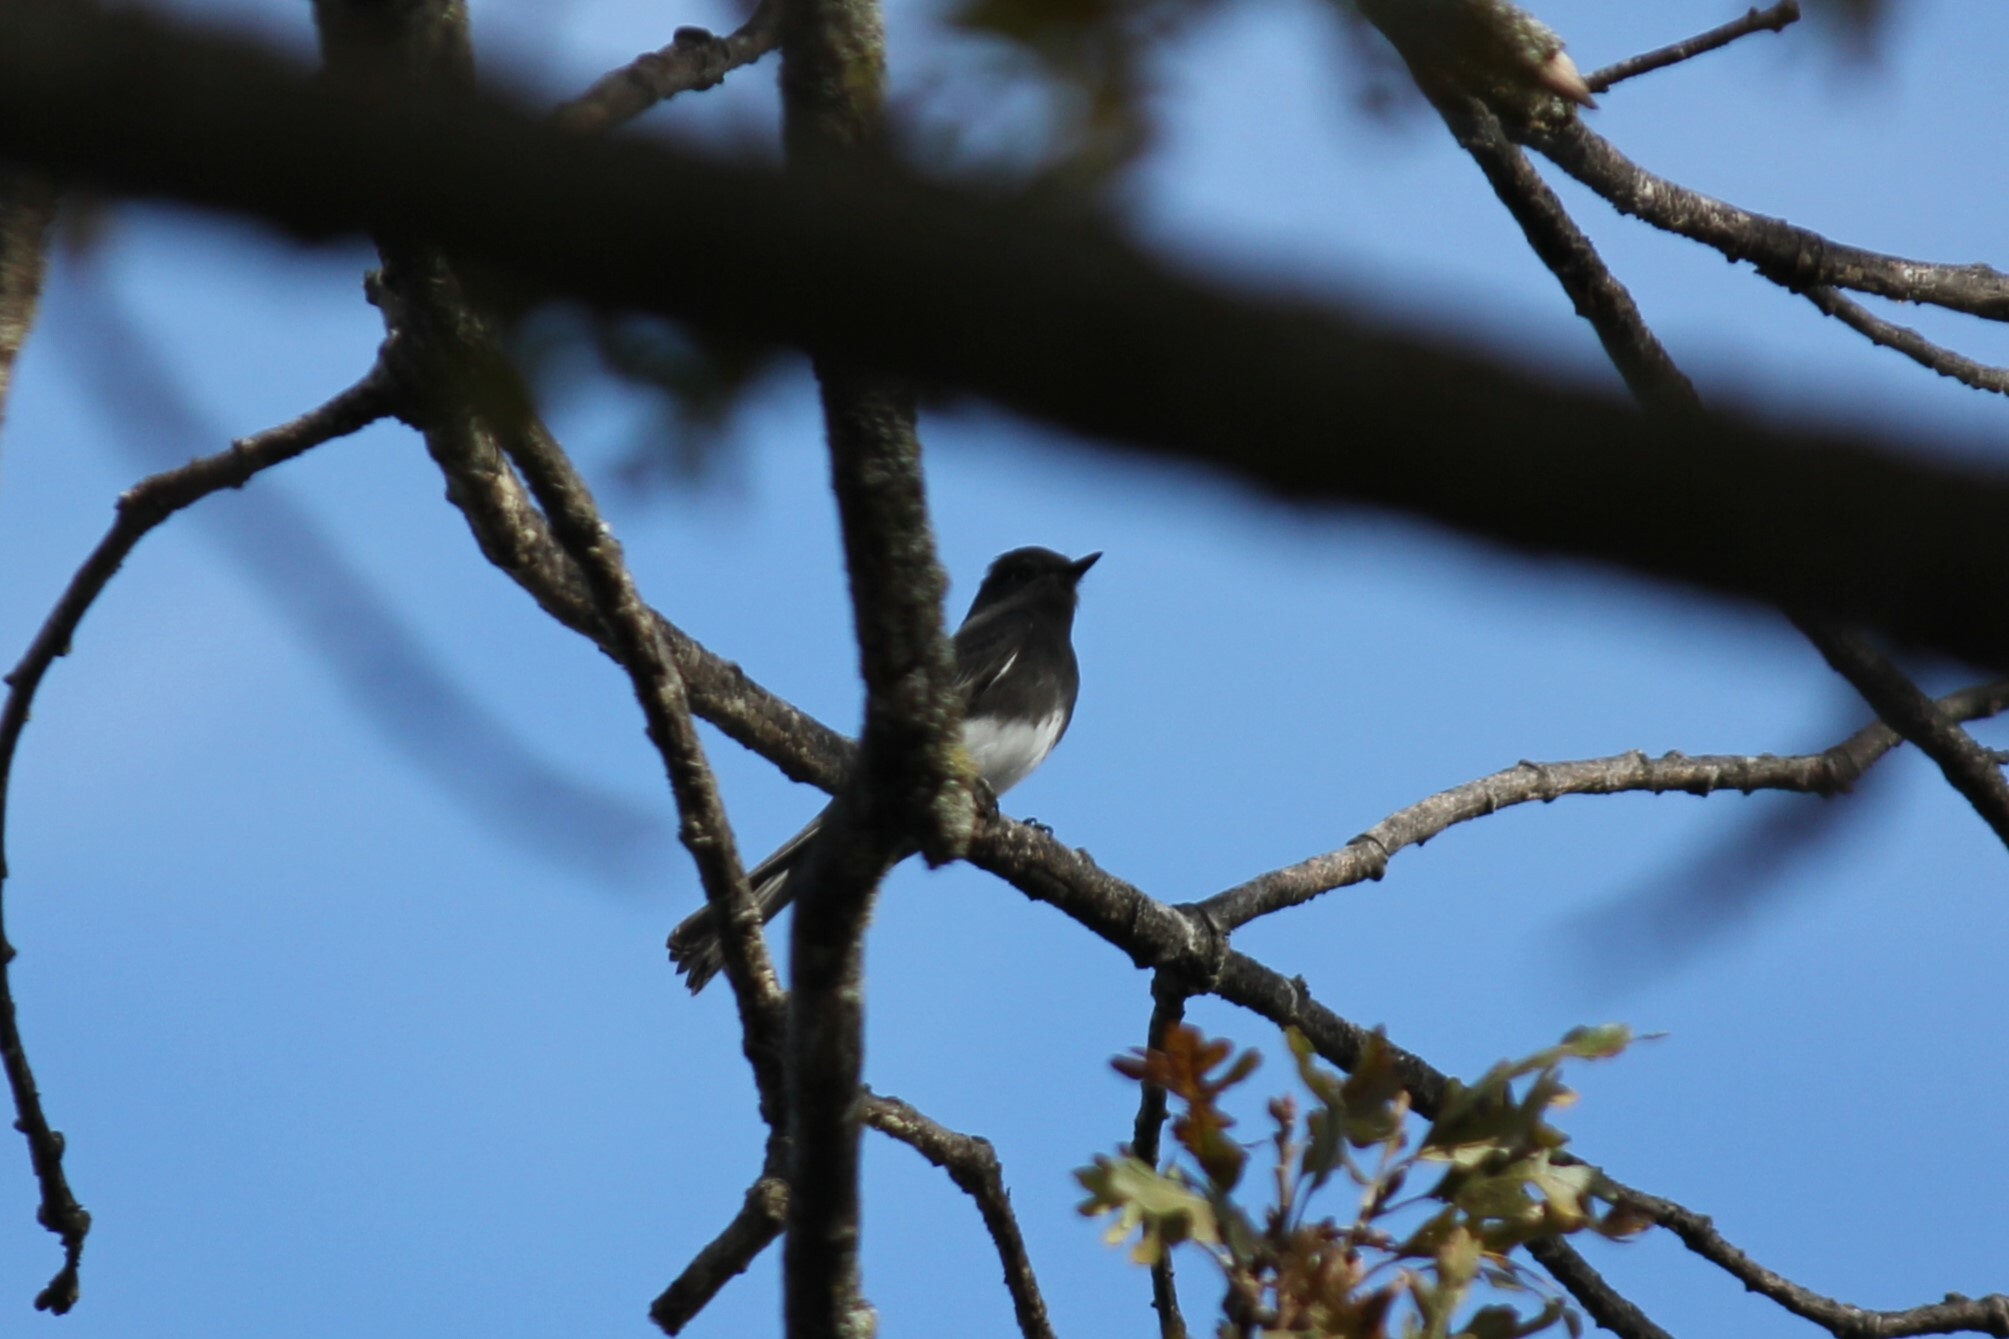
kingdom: Animalia
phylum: Chordata
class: Aves
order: Passeriformes
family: Tyrannidae
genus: Sayornis
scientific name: Sayornis nigricans
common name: Black phoebe
